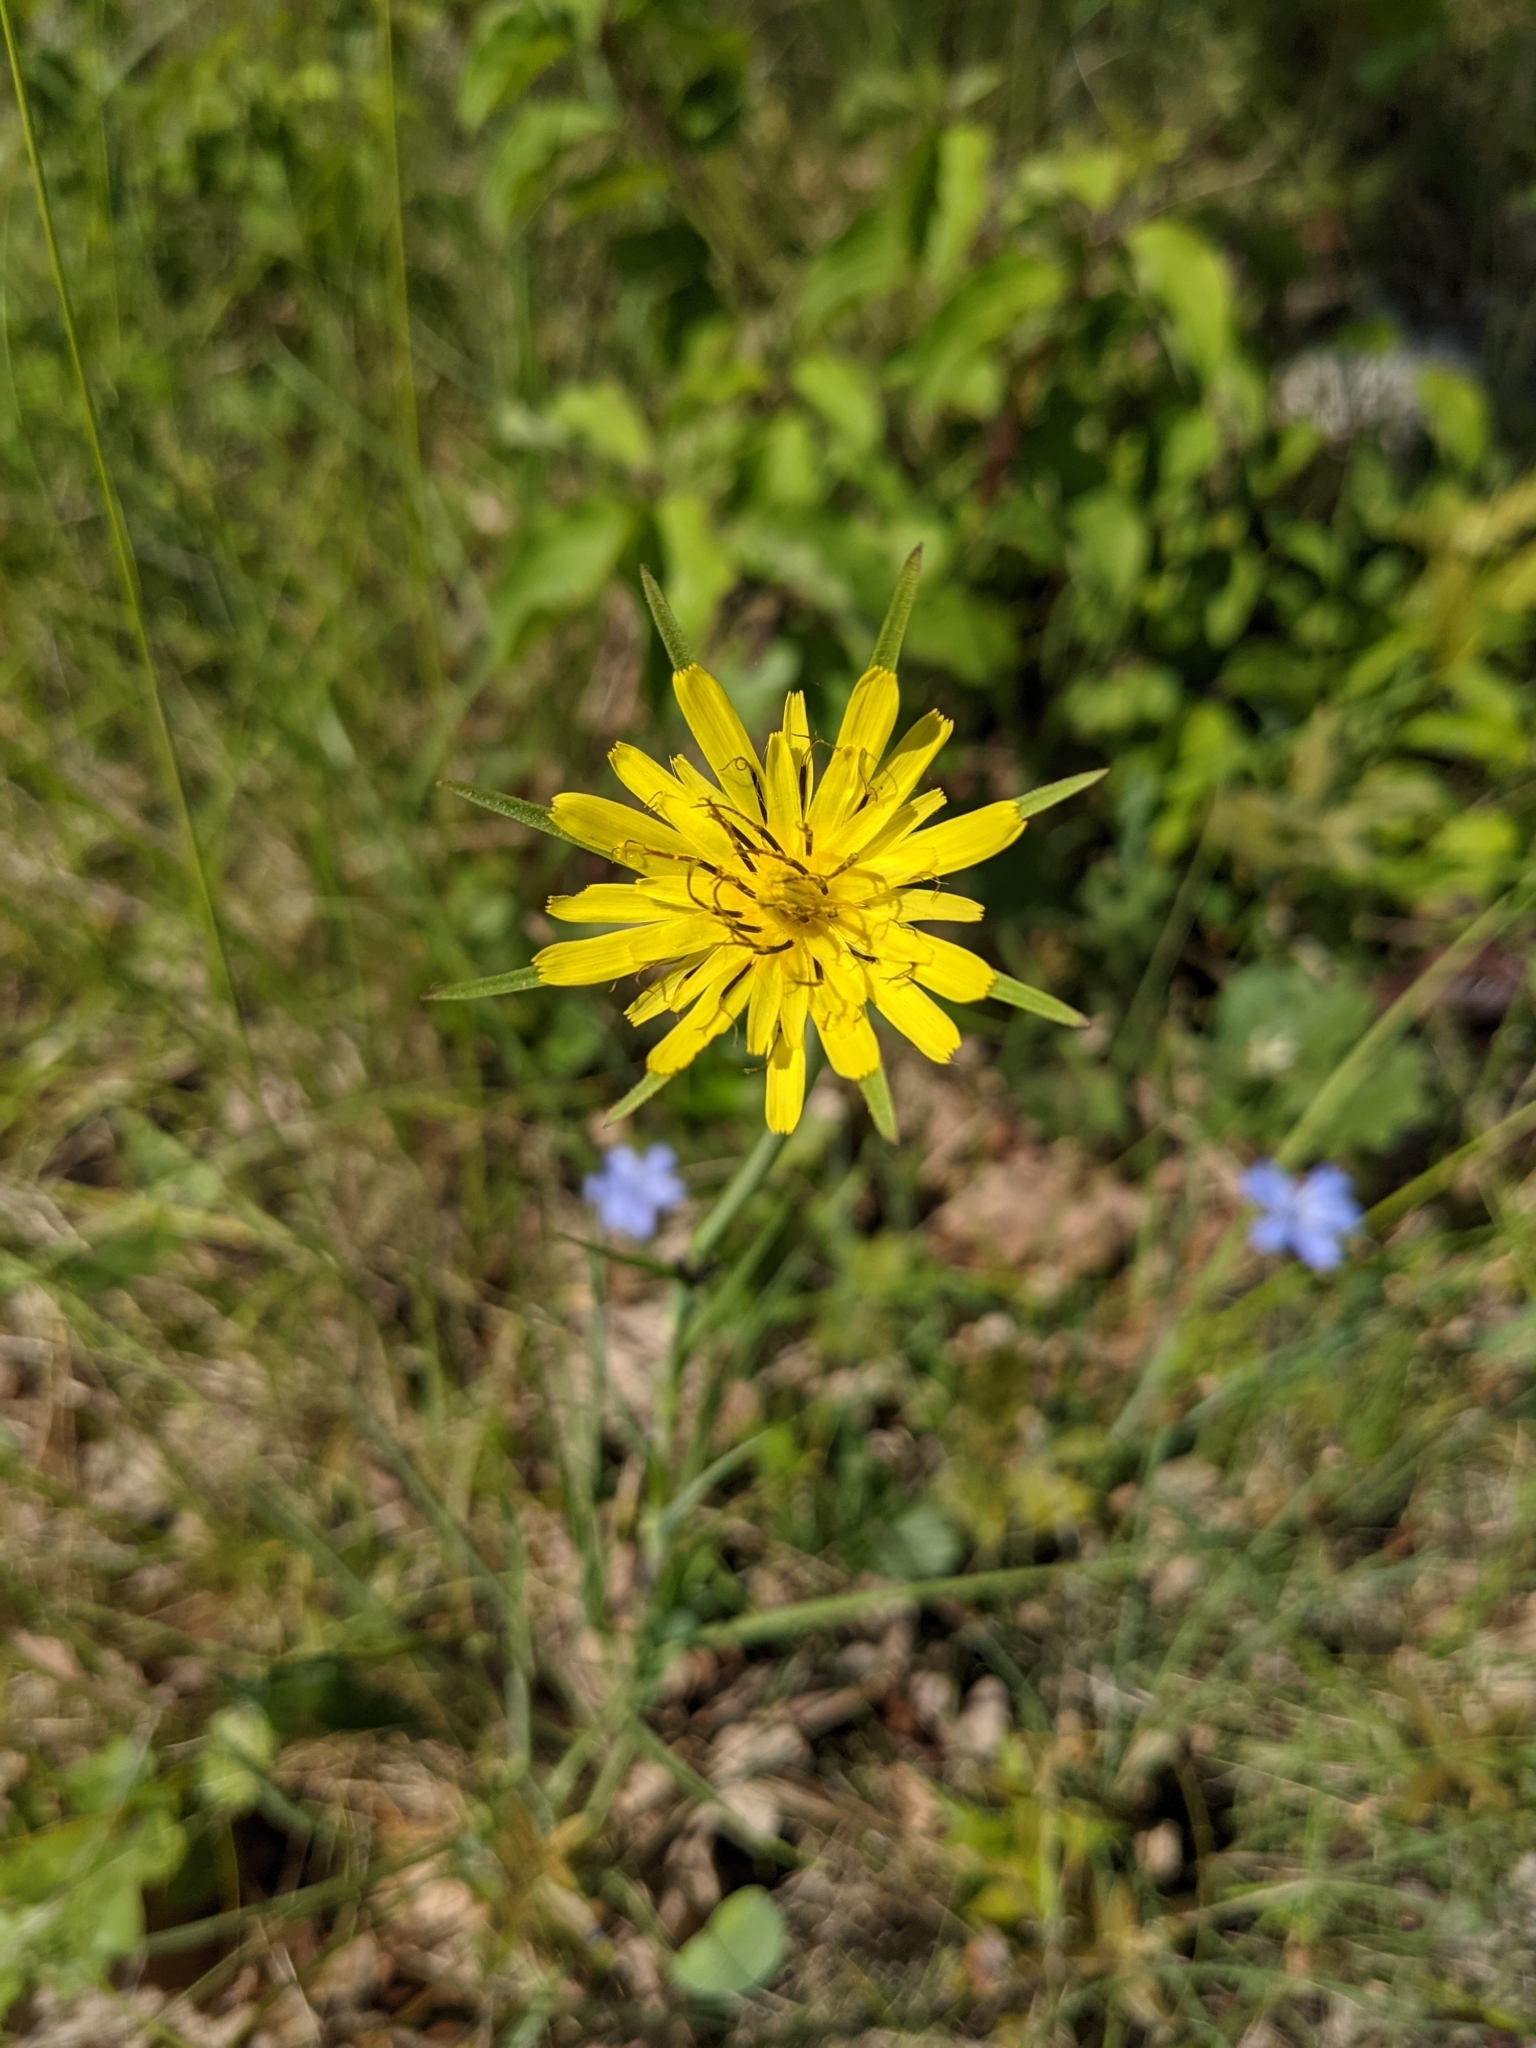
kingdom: Plantae
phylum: Tracheophyta
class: Magnoliopsida
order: Asterales
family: Asteraceae
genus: Tragopogon
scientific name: Tragopogon dubius
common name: Yellow salsify
